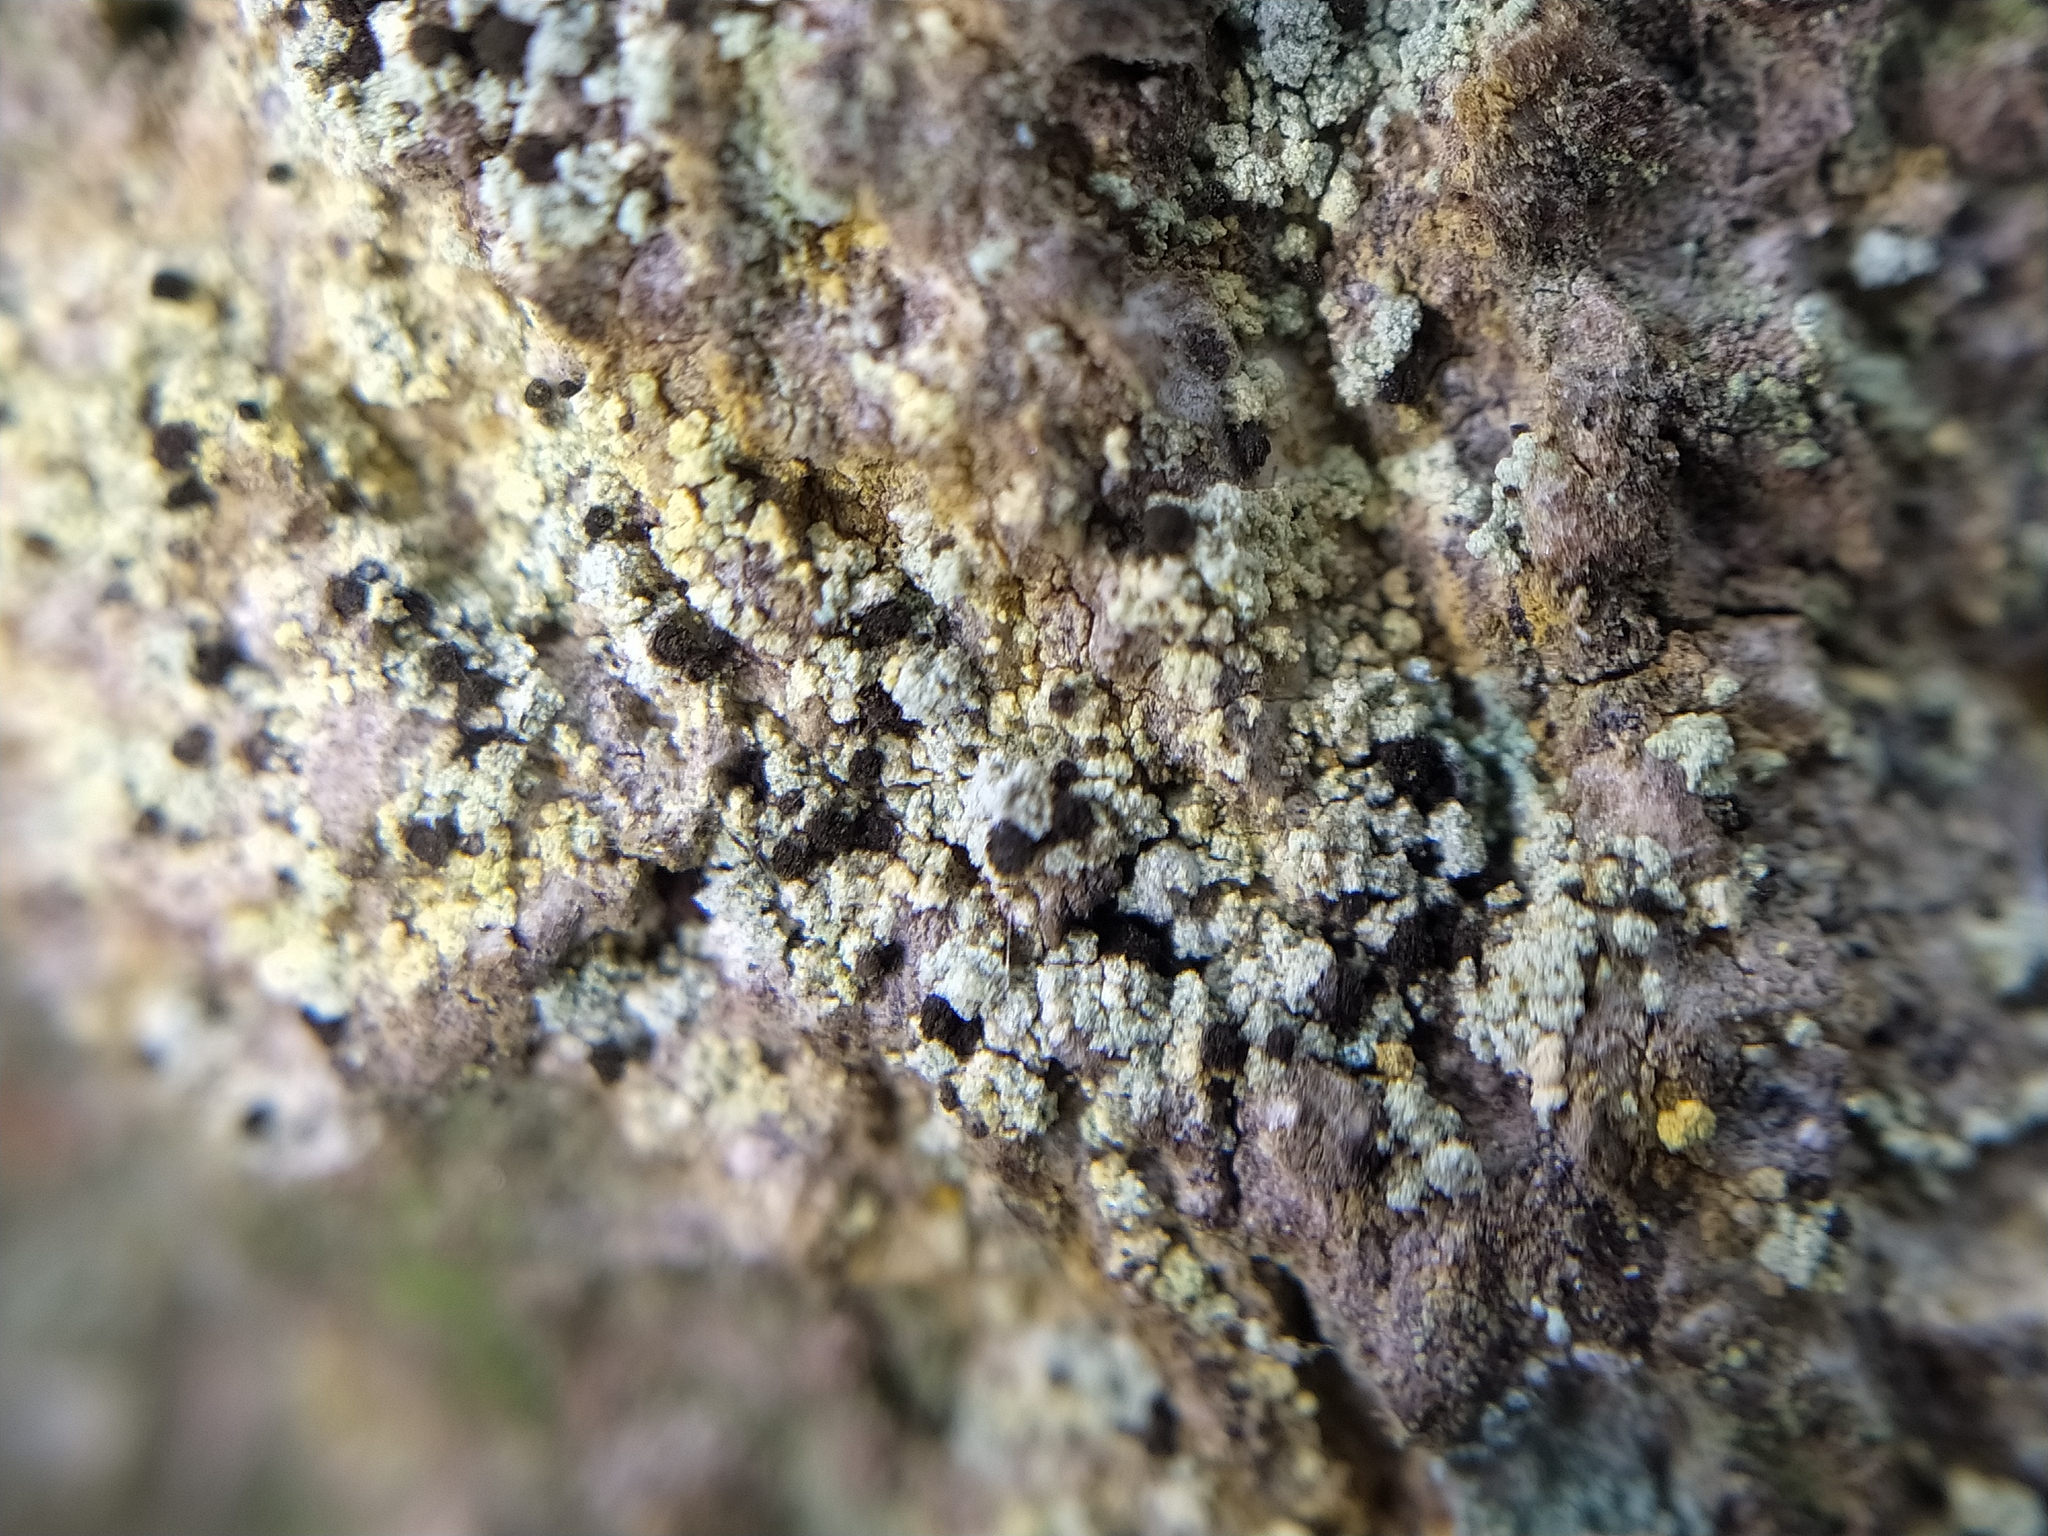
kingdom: Fungi
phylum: Ascomycota
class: Coniocybomycetes
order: Coniocybales
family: Coniocybaceae
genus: Chaenotheca
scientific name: Chaenotheca ferruginea
